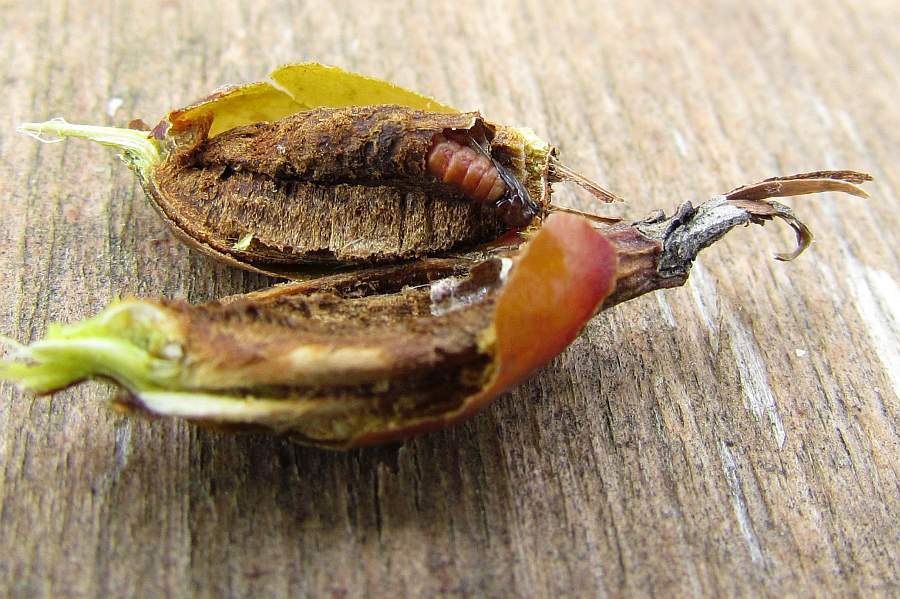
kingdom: Animalia
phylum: Arthropoda
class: Insecta
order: Diptera
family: Cecidomyiidae
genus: Thecodiplosis
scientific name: Thecodiplosis pinirigidae
